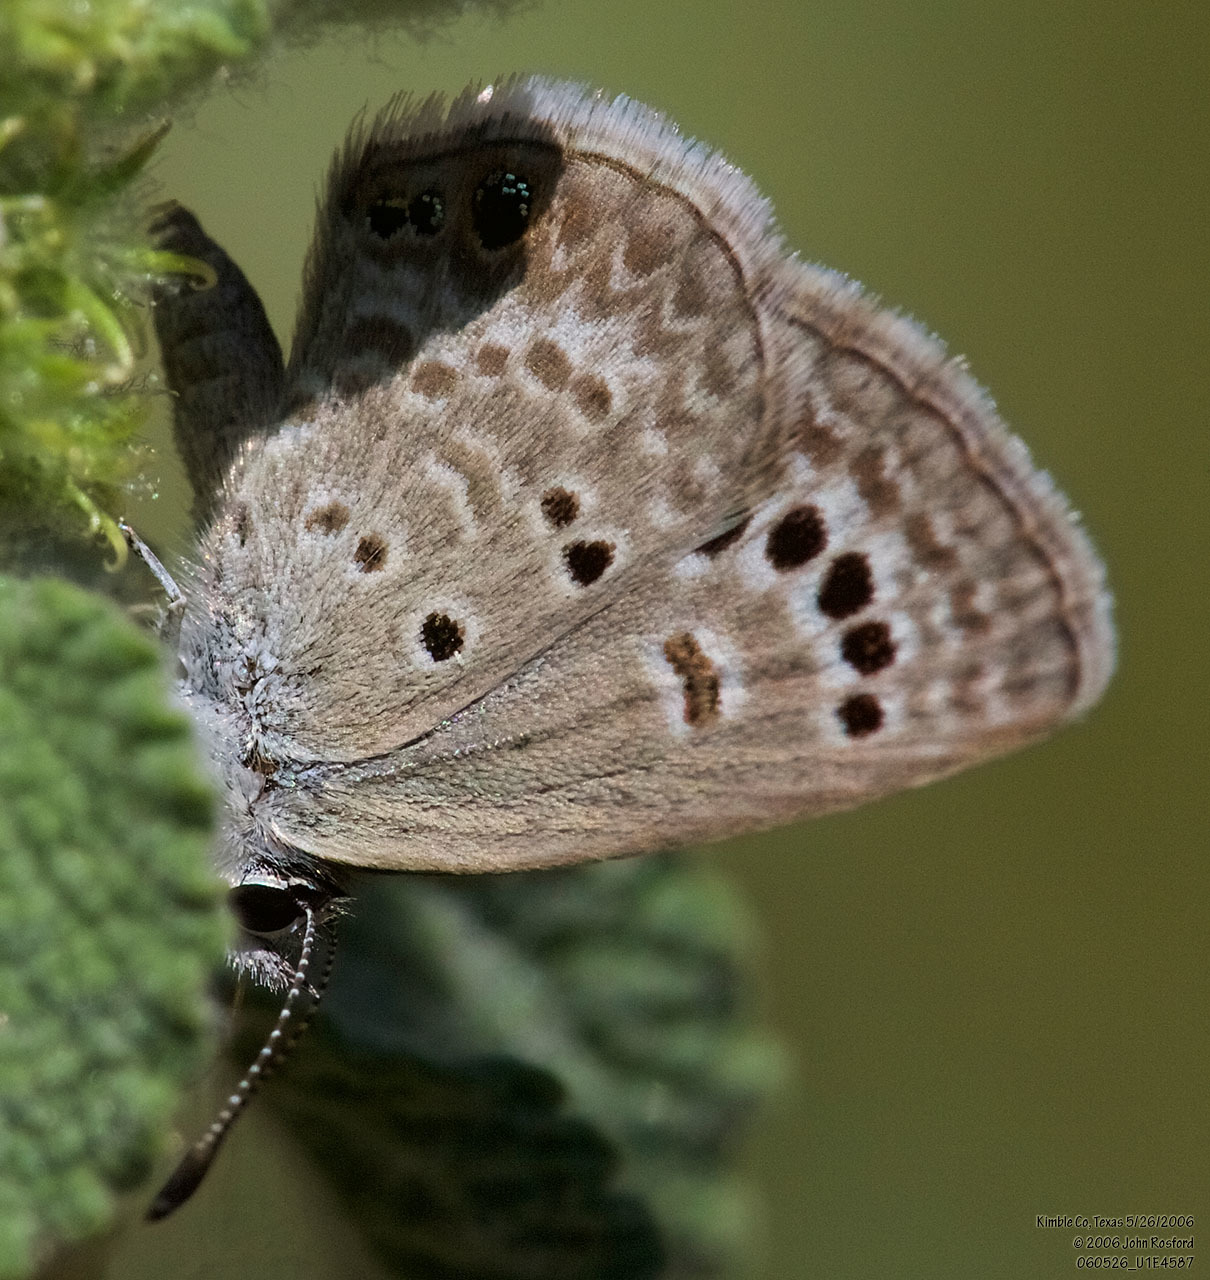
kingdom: Animalia
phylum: Arthropoda
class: Insecta
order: Lepidoptera
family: Lycaenidae
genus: Echinargus
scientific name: Echinargus isola
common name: Reakirt's blue
